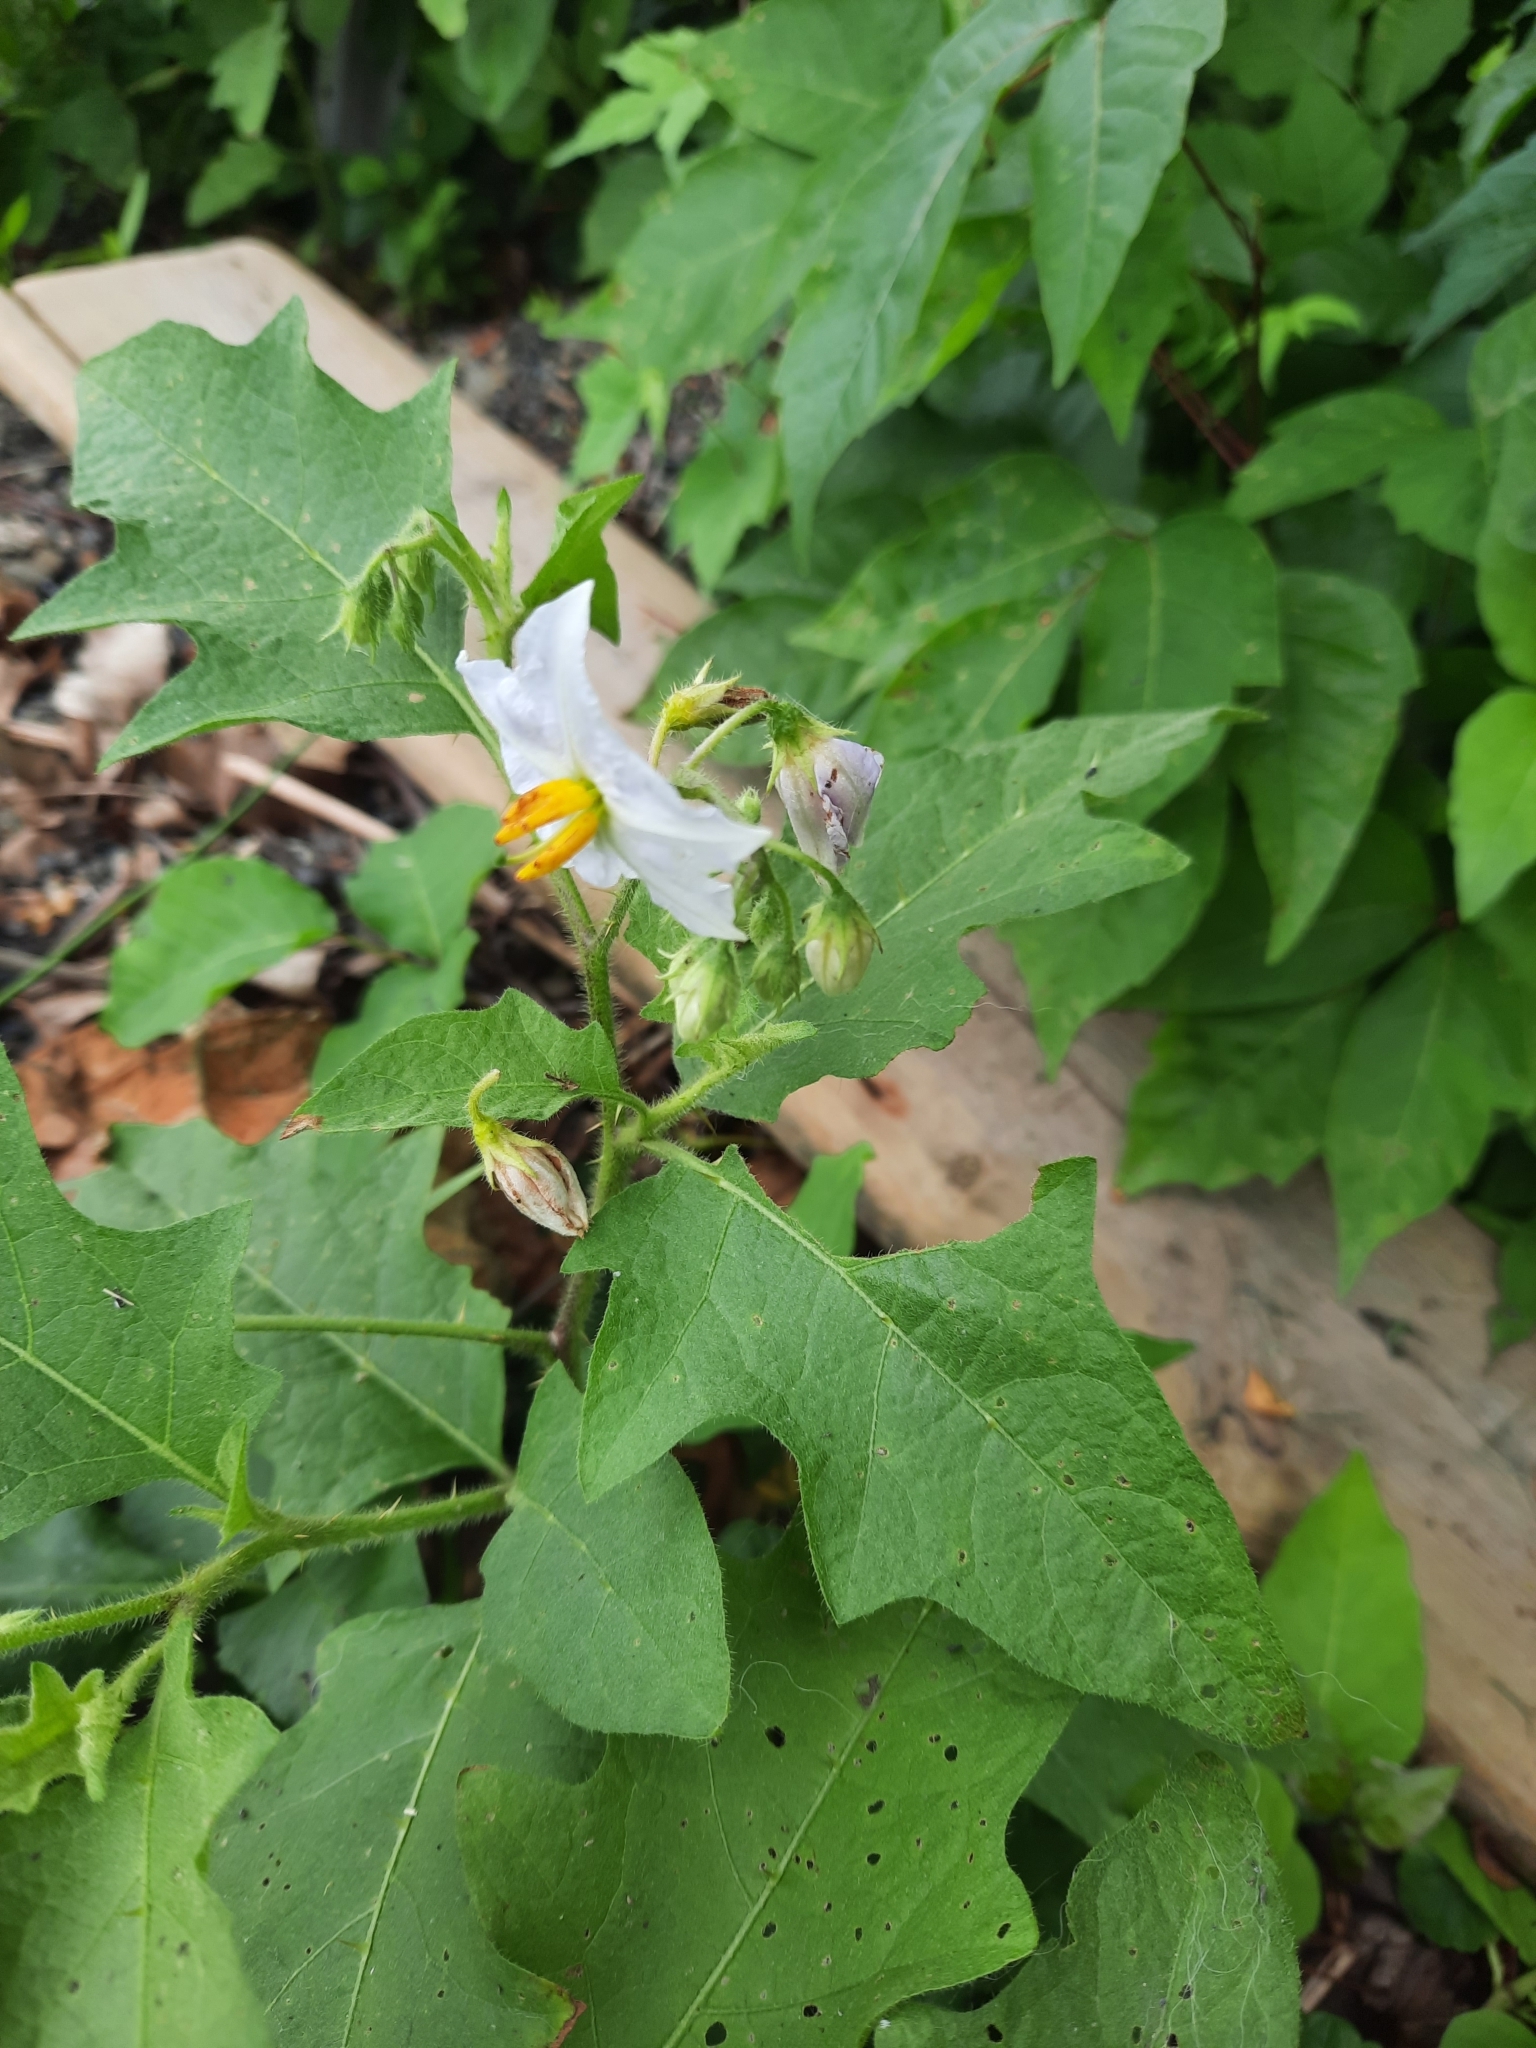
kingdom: Plantae
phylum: Tracheophyta
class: Magnoliopsida
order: Solanales
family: Solanaceae
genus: Solanum
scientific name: Solanum carolinense
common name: Horse-nettle
